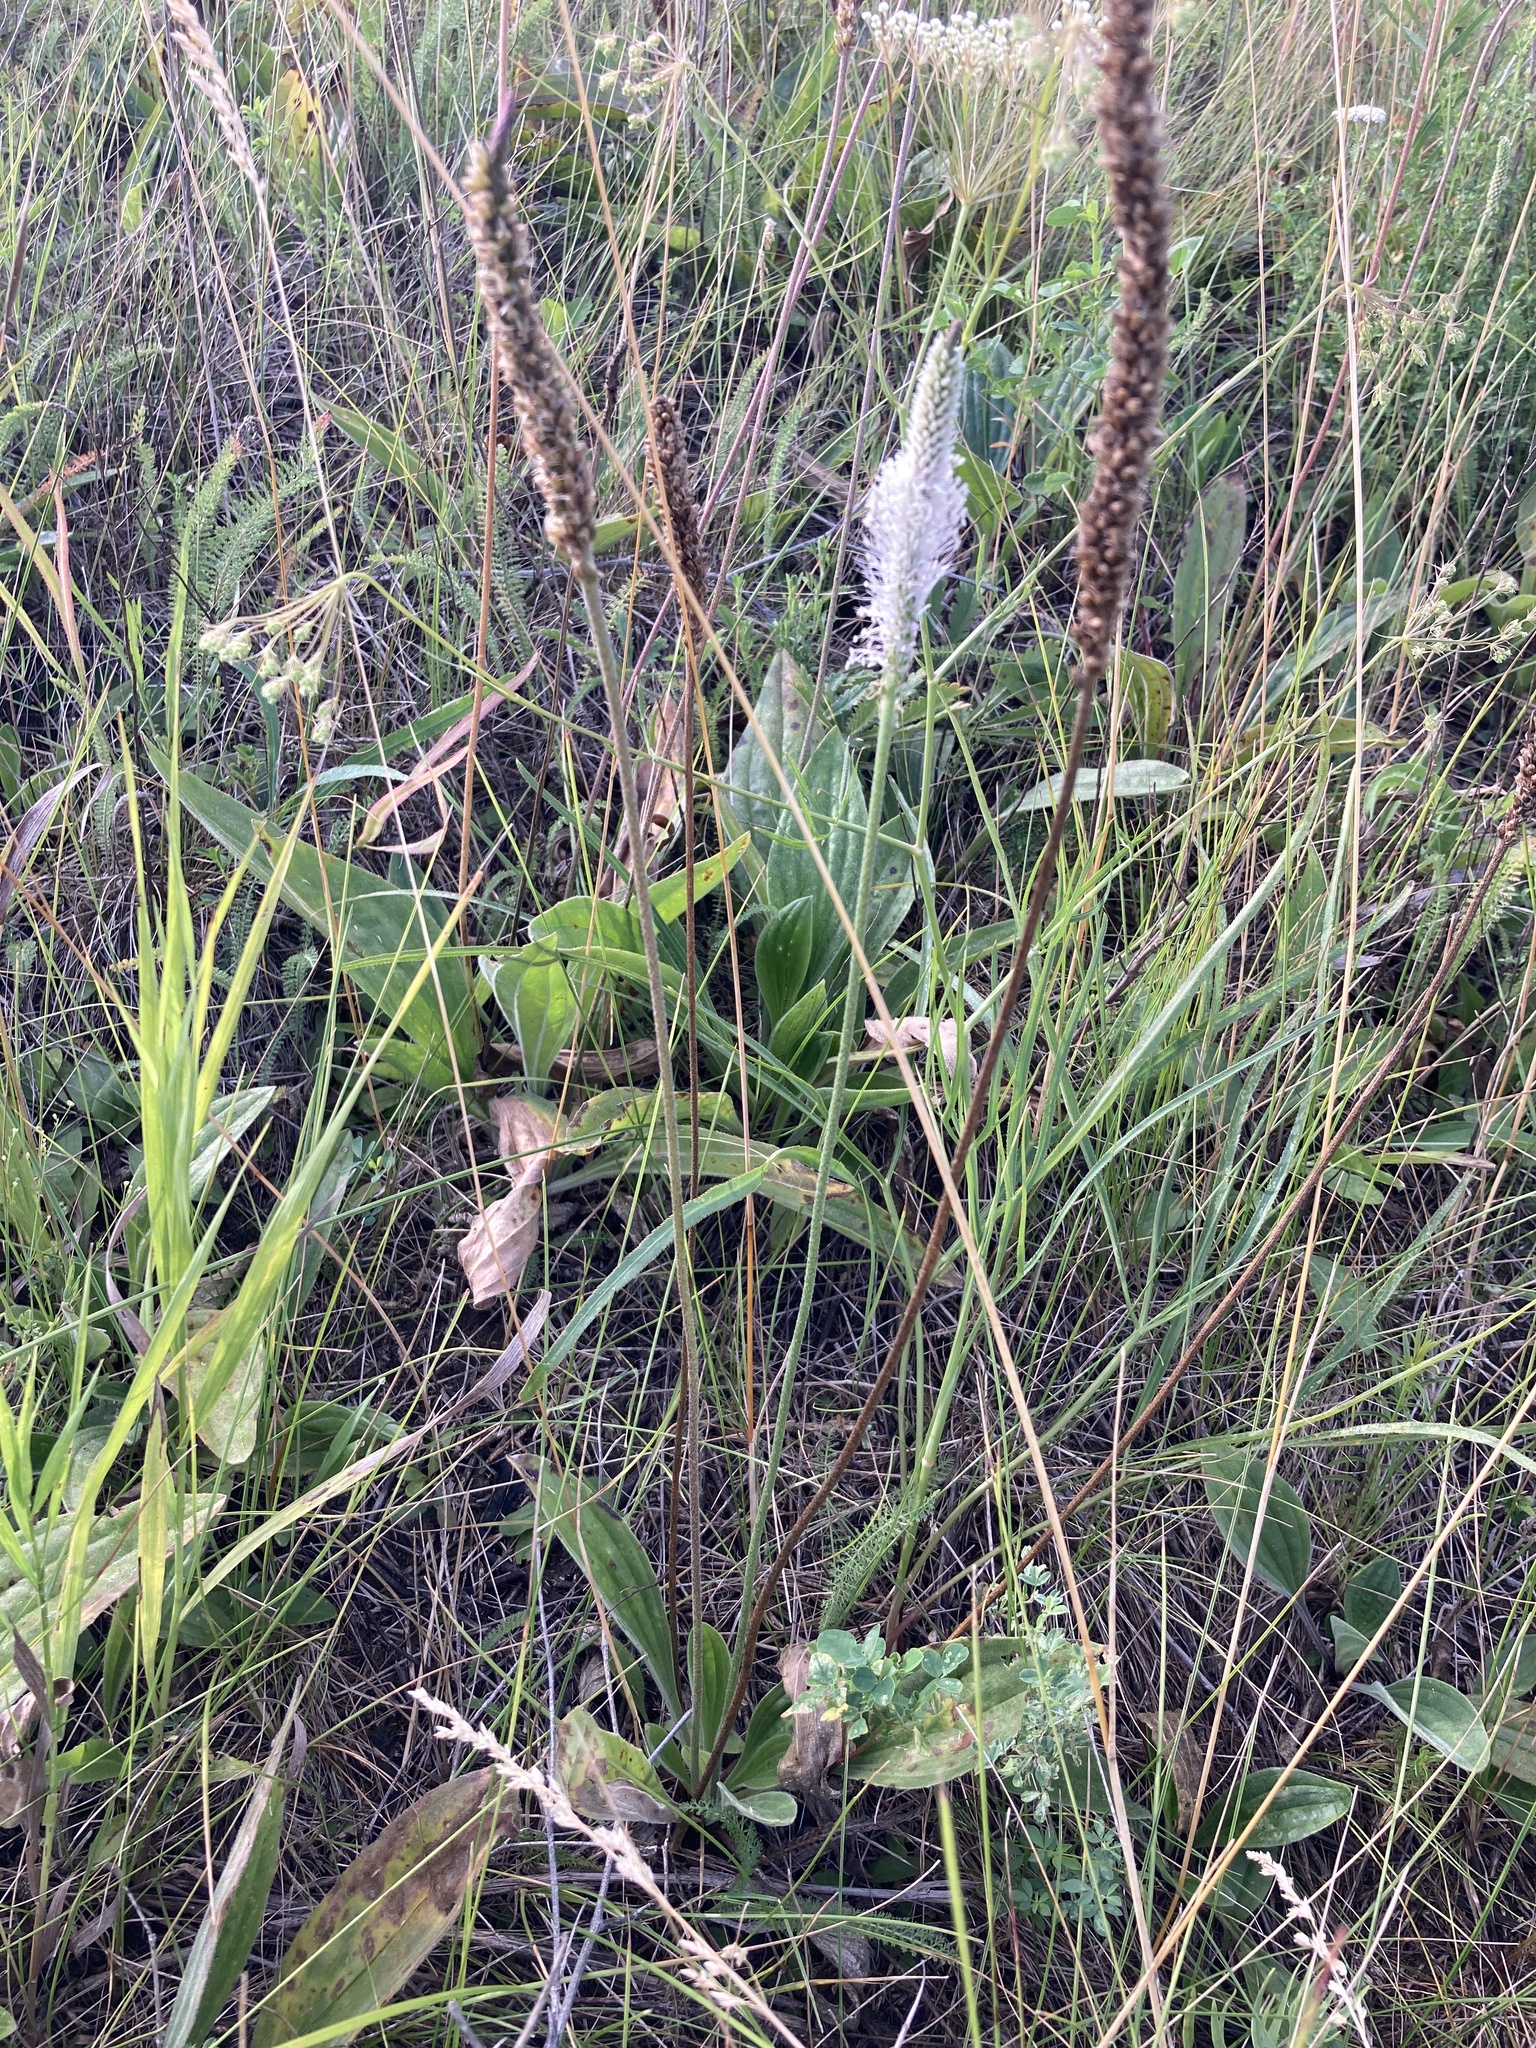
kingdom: Plantae
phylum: Tracheophyta
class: Magnoliopsida
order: Lamiales
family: Plantaginaceae
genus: Plantago
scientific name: Plantago urvillei
